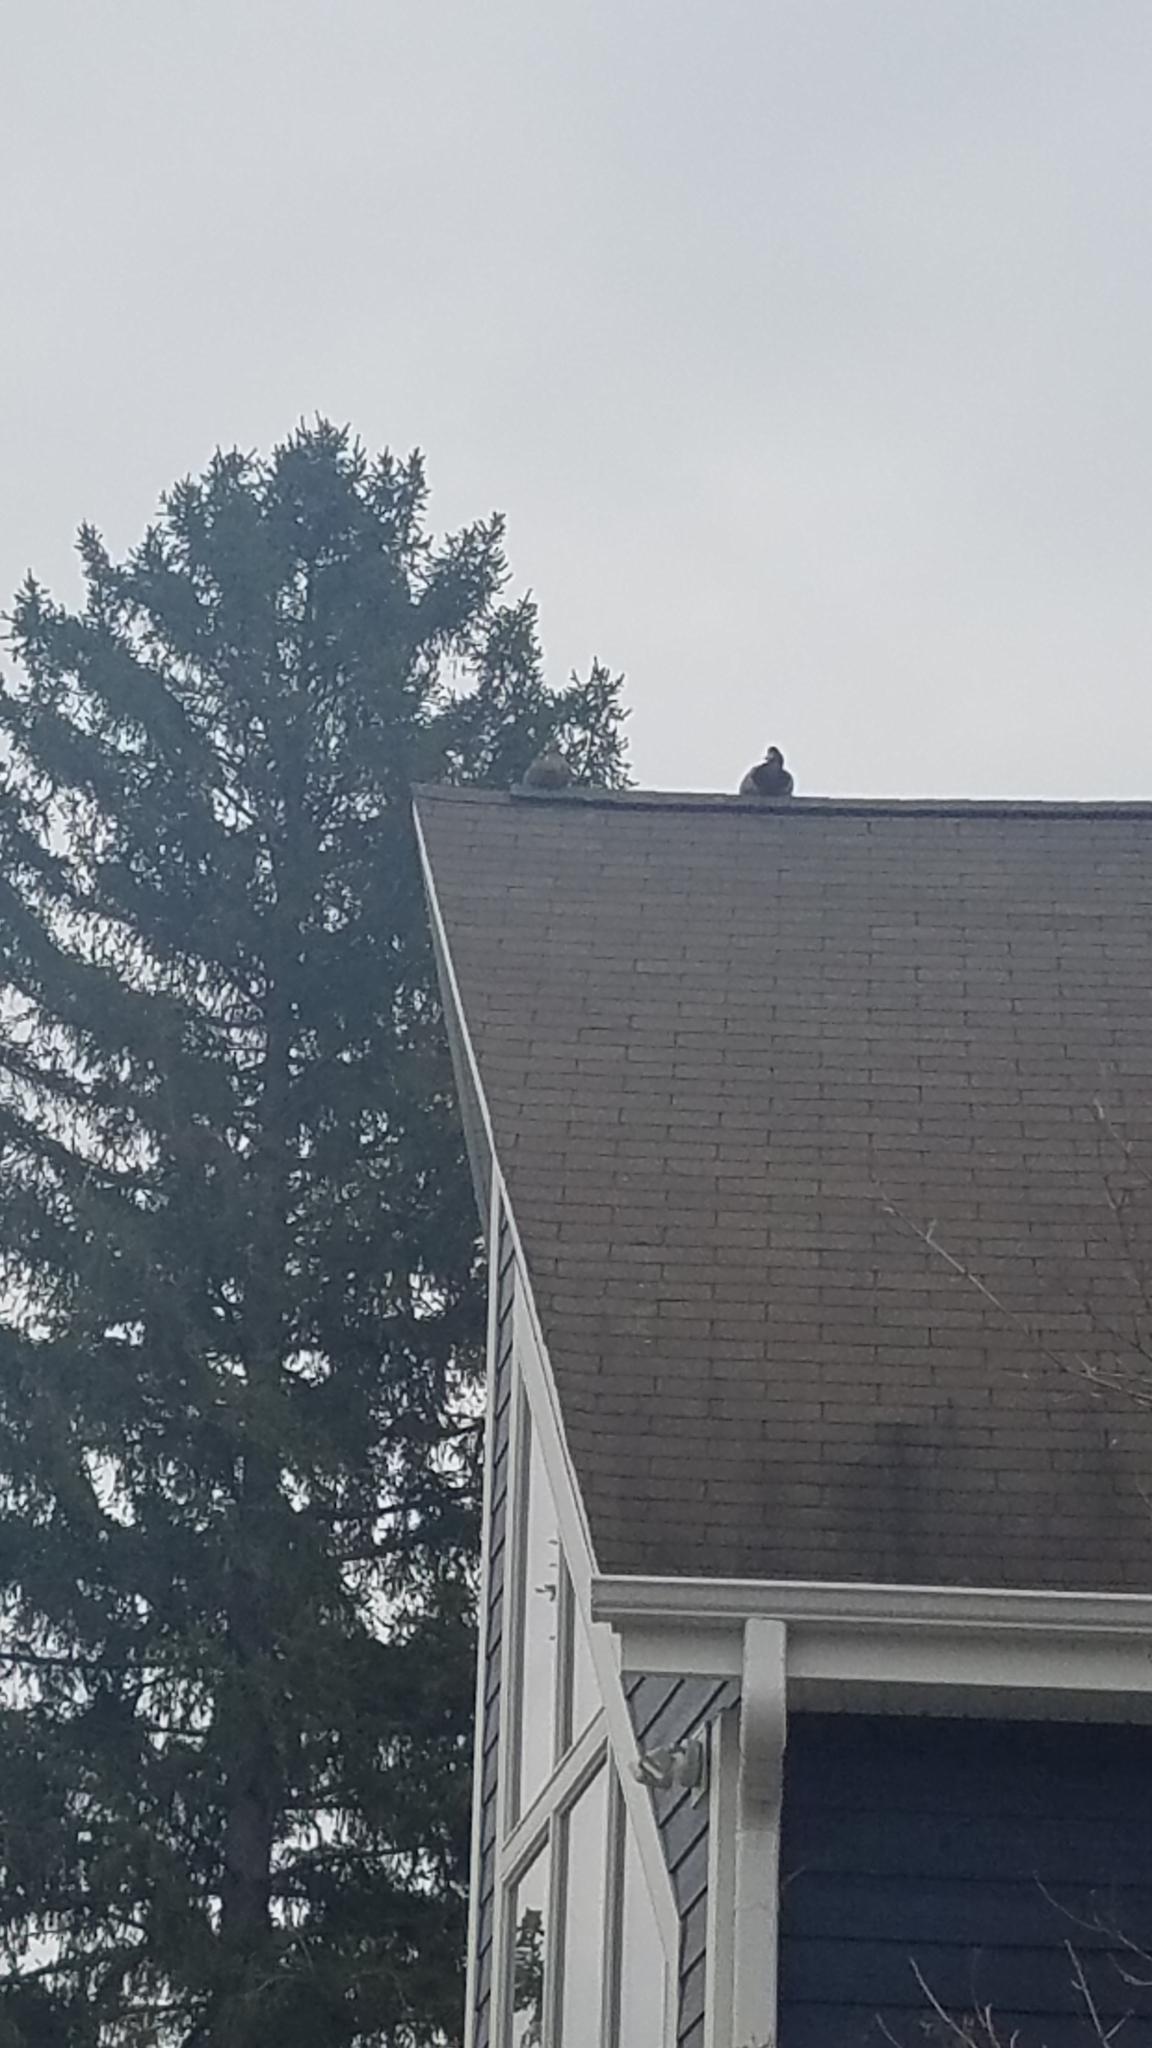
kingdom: Animalia
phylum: Chordata
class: Aves
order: Anseriformes
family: Anatidae
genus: Anas
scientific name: Anas platyrhynchos
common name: Mallard
